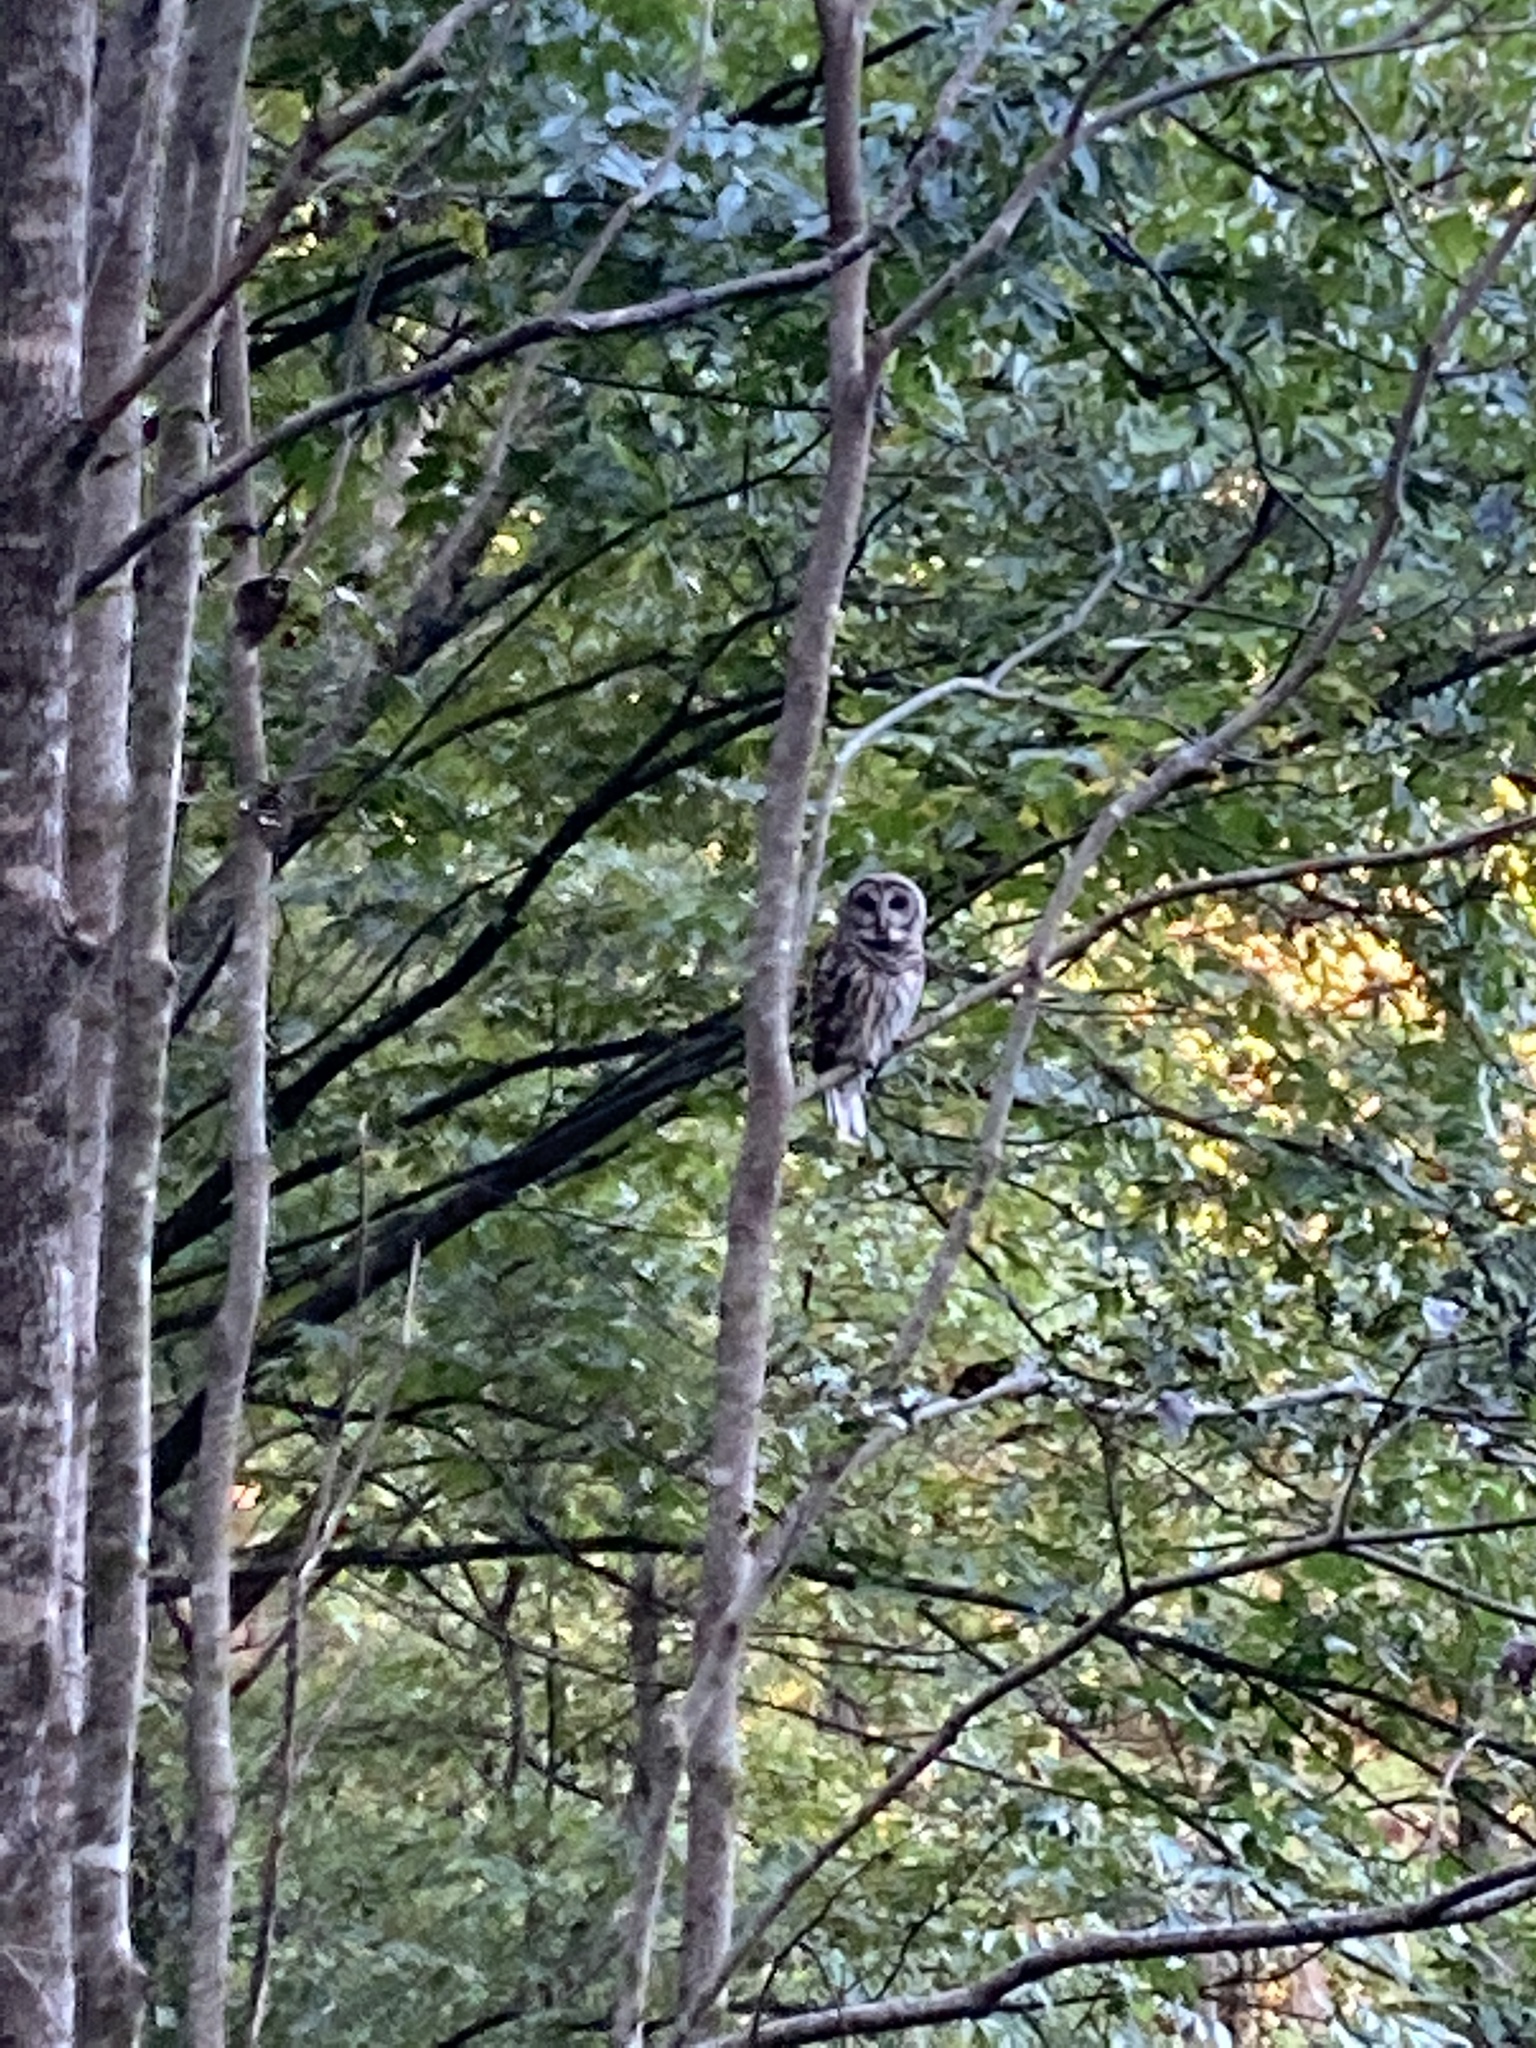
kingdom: Animalia
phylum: Chordata
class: Aves
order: Strigiformes
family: Strigidae
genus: Strix
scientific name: Strix varia
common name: Barred owl
